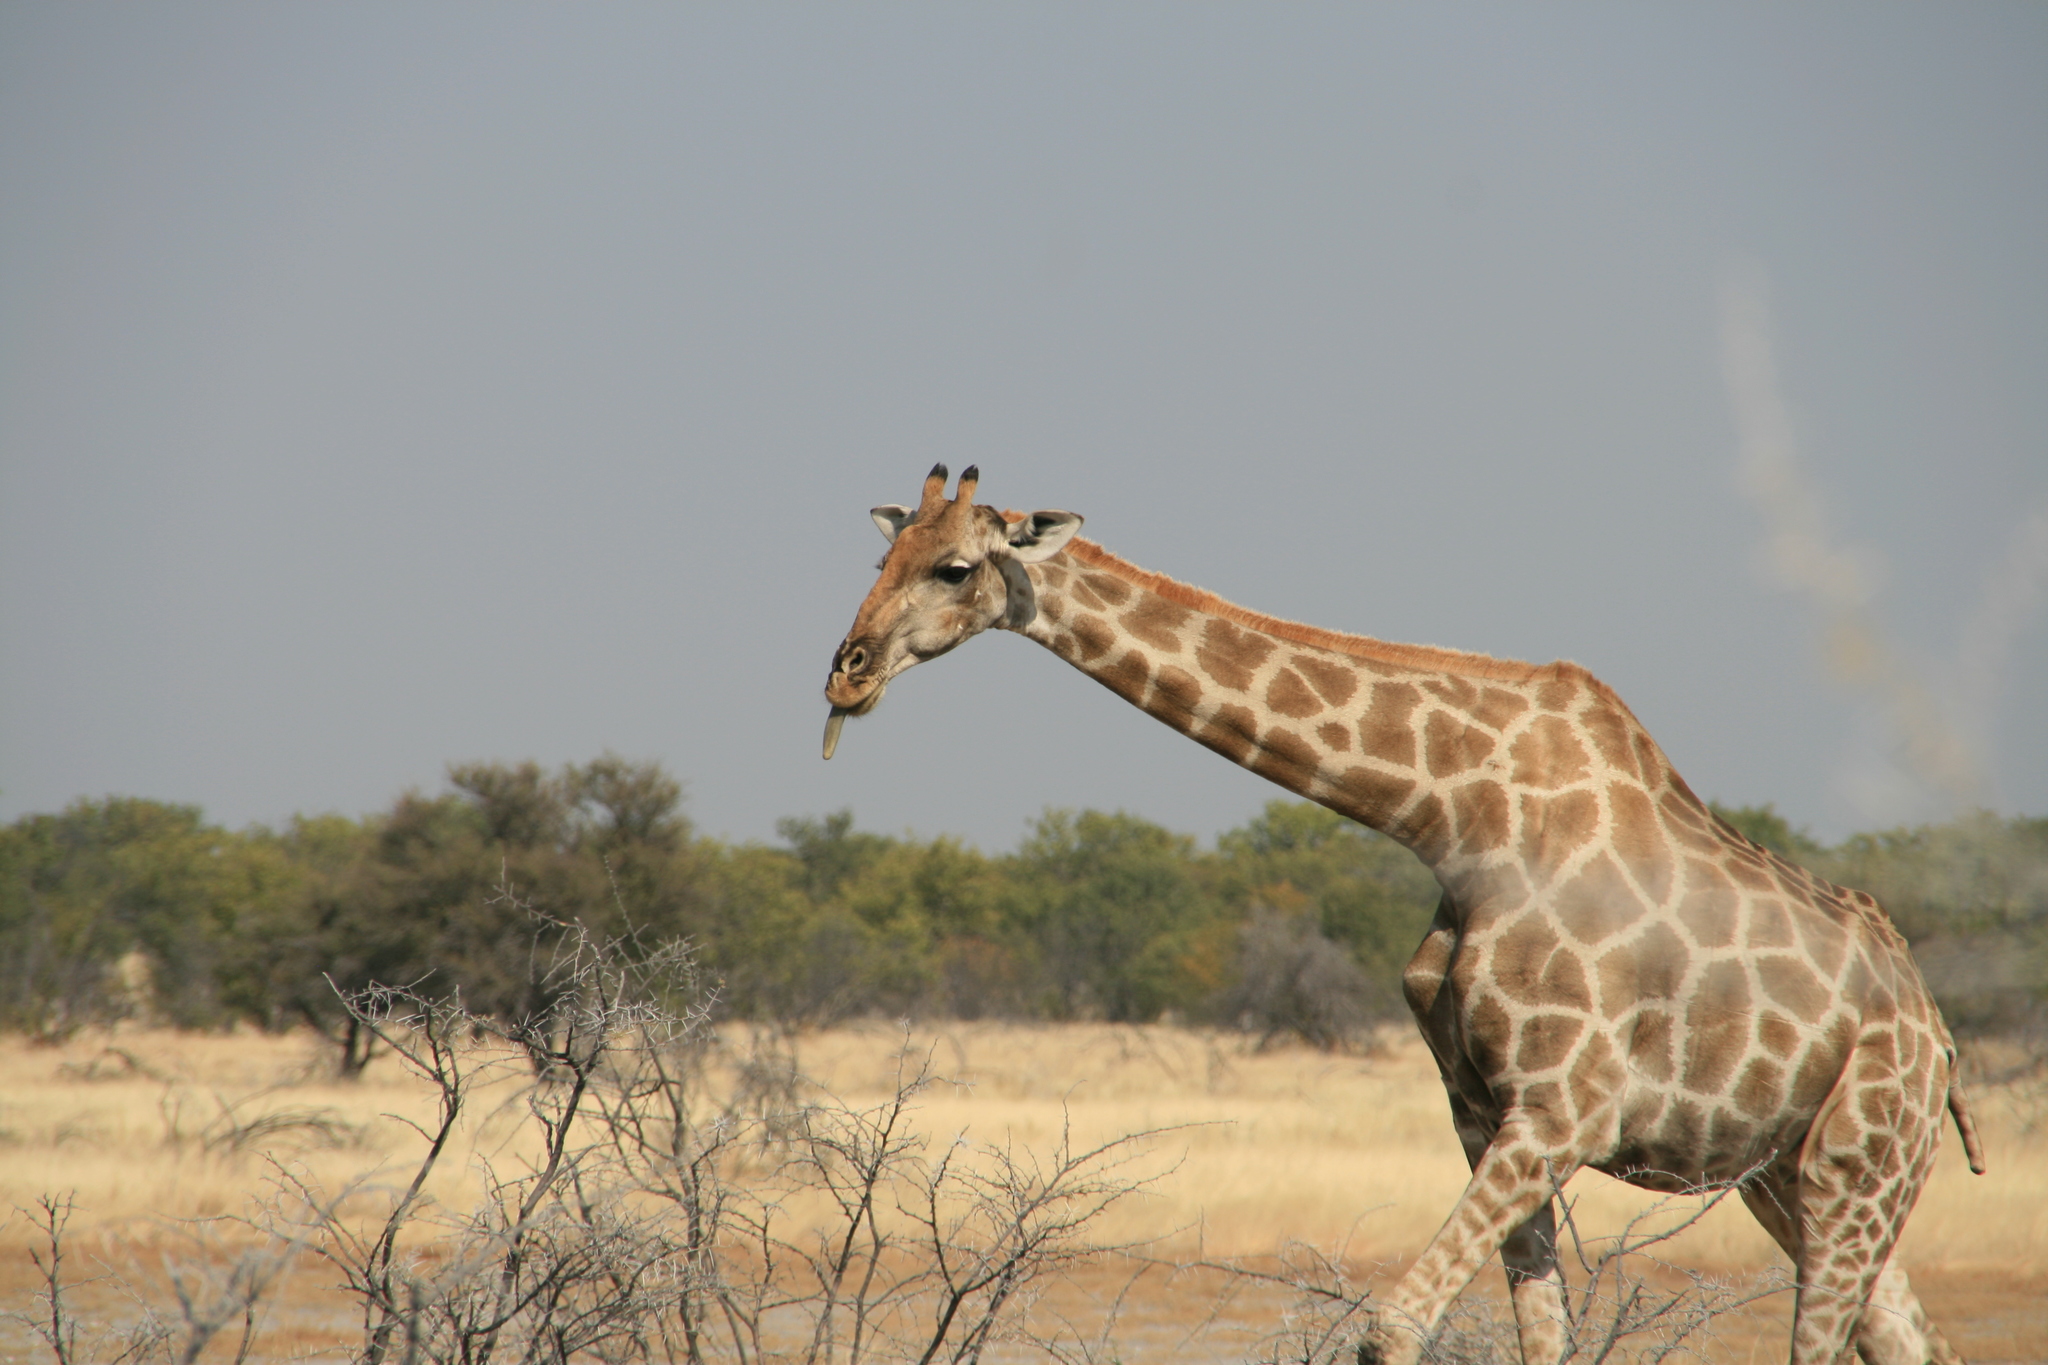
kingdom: Animalia
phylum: Chordata
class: Mammalia
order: Artiodactyla
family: Giraffidae
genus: Giraffa
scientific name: Giraffa giraffa
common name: Southern giraffe
